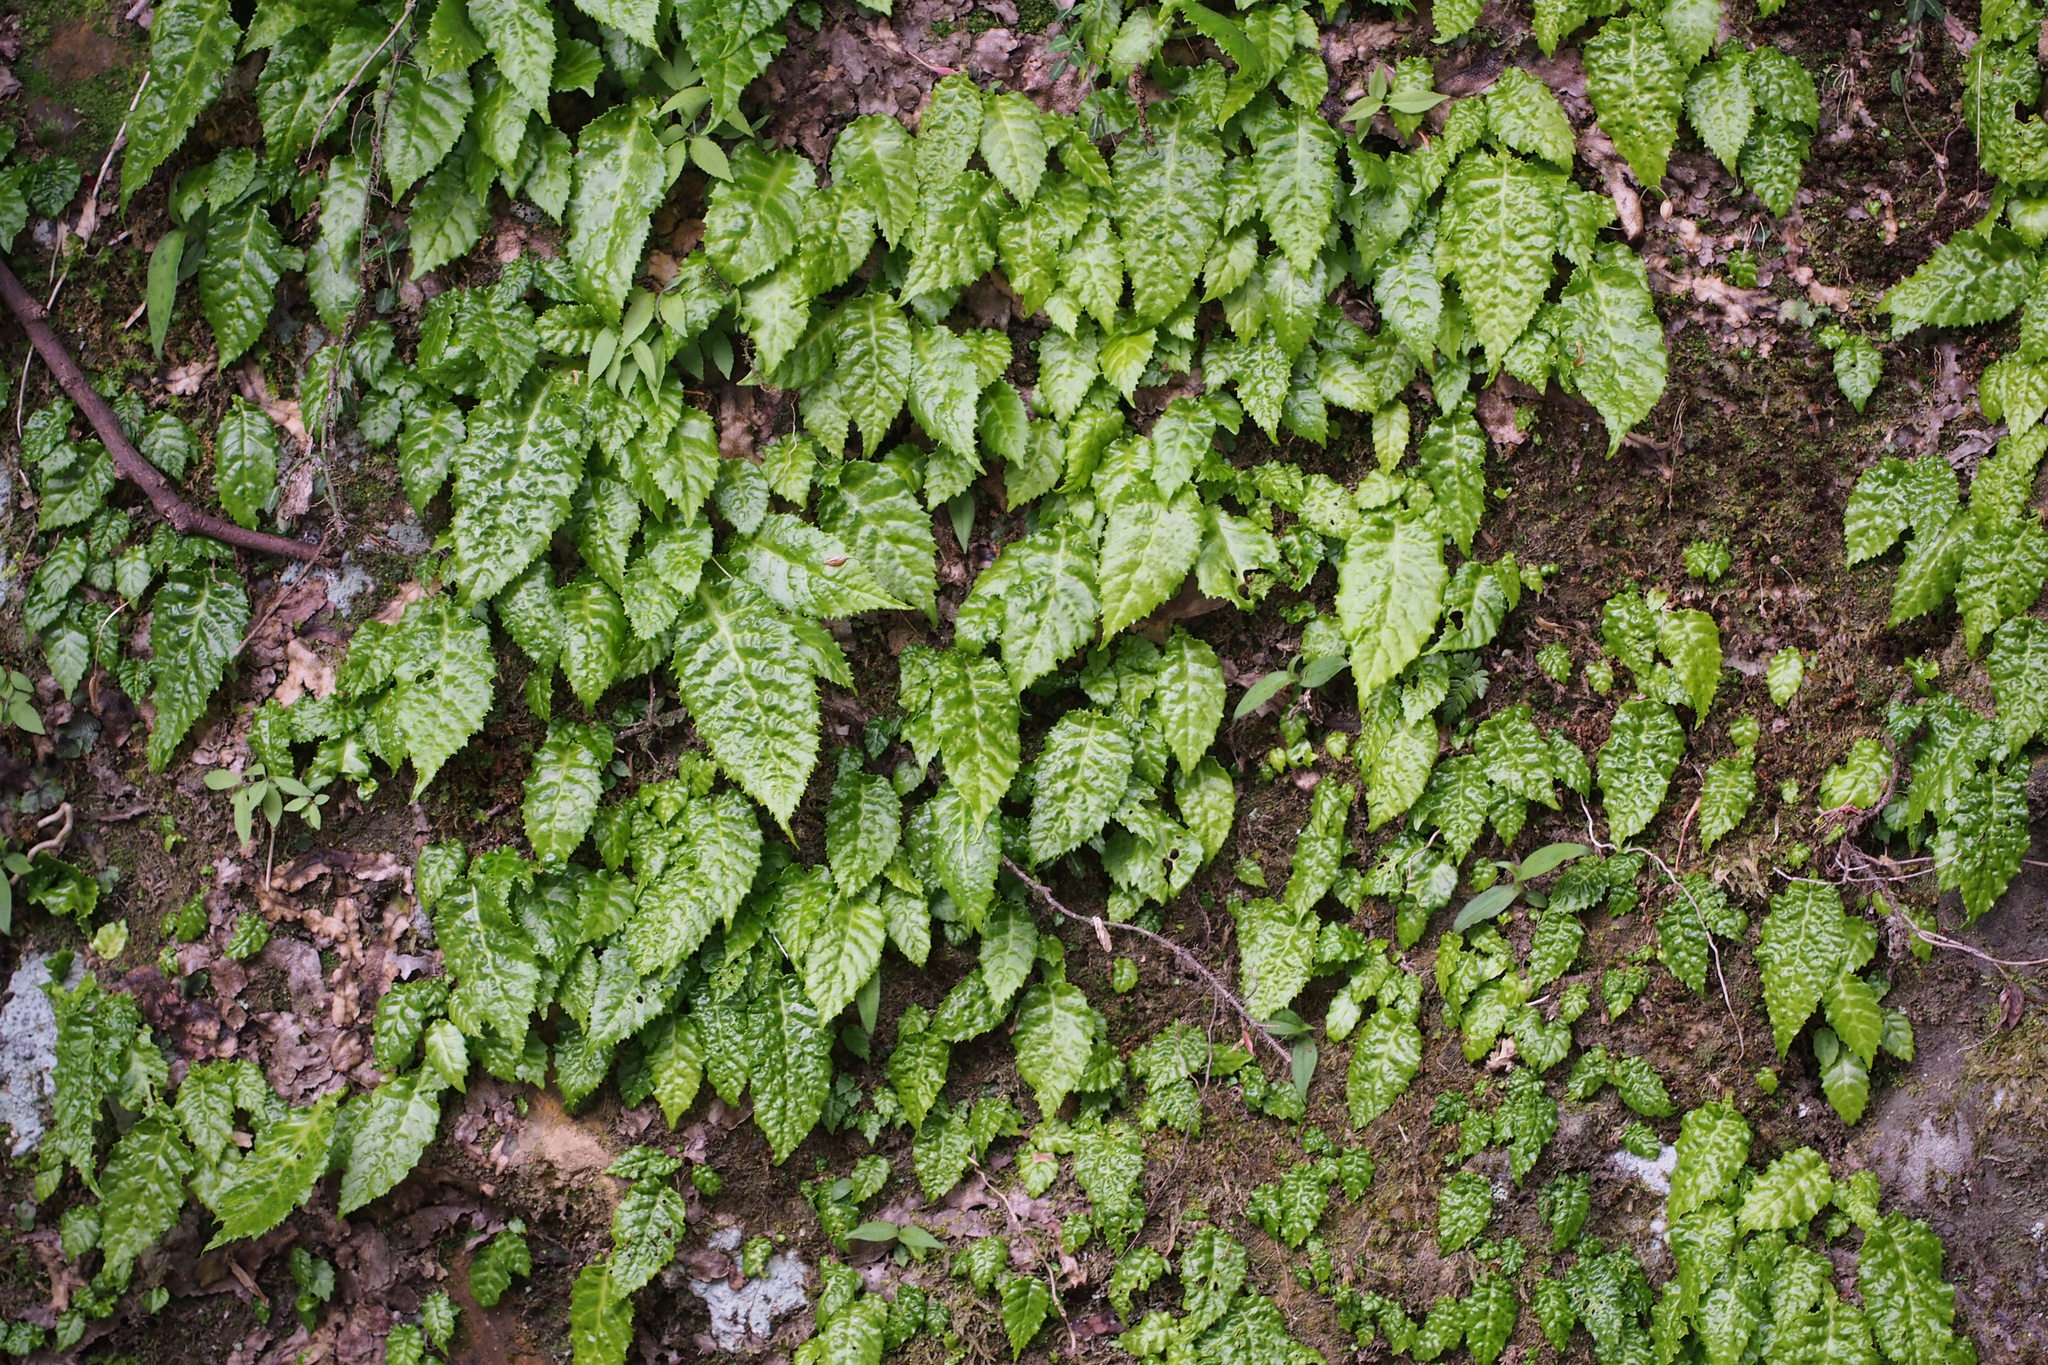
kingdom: Plantae
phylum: Tracheophyta
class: Magnoliopsida
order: Lamiales
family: Gesneriaceae
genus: Conandron
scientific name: Conandron ramondioides
